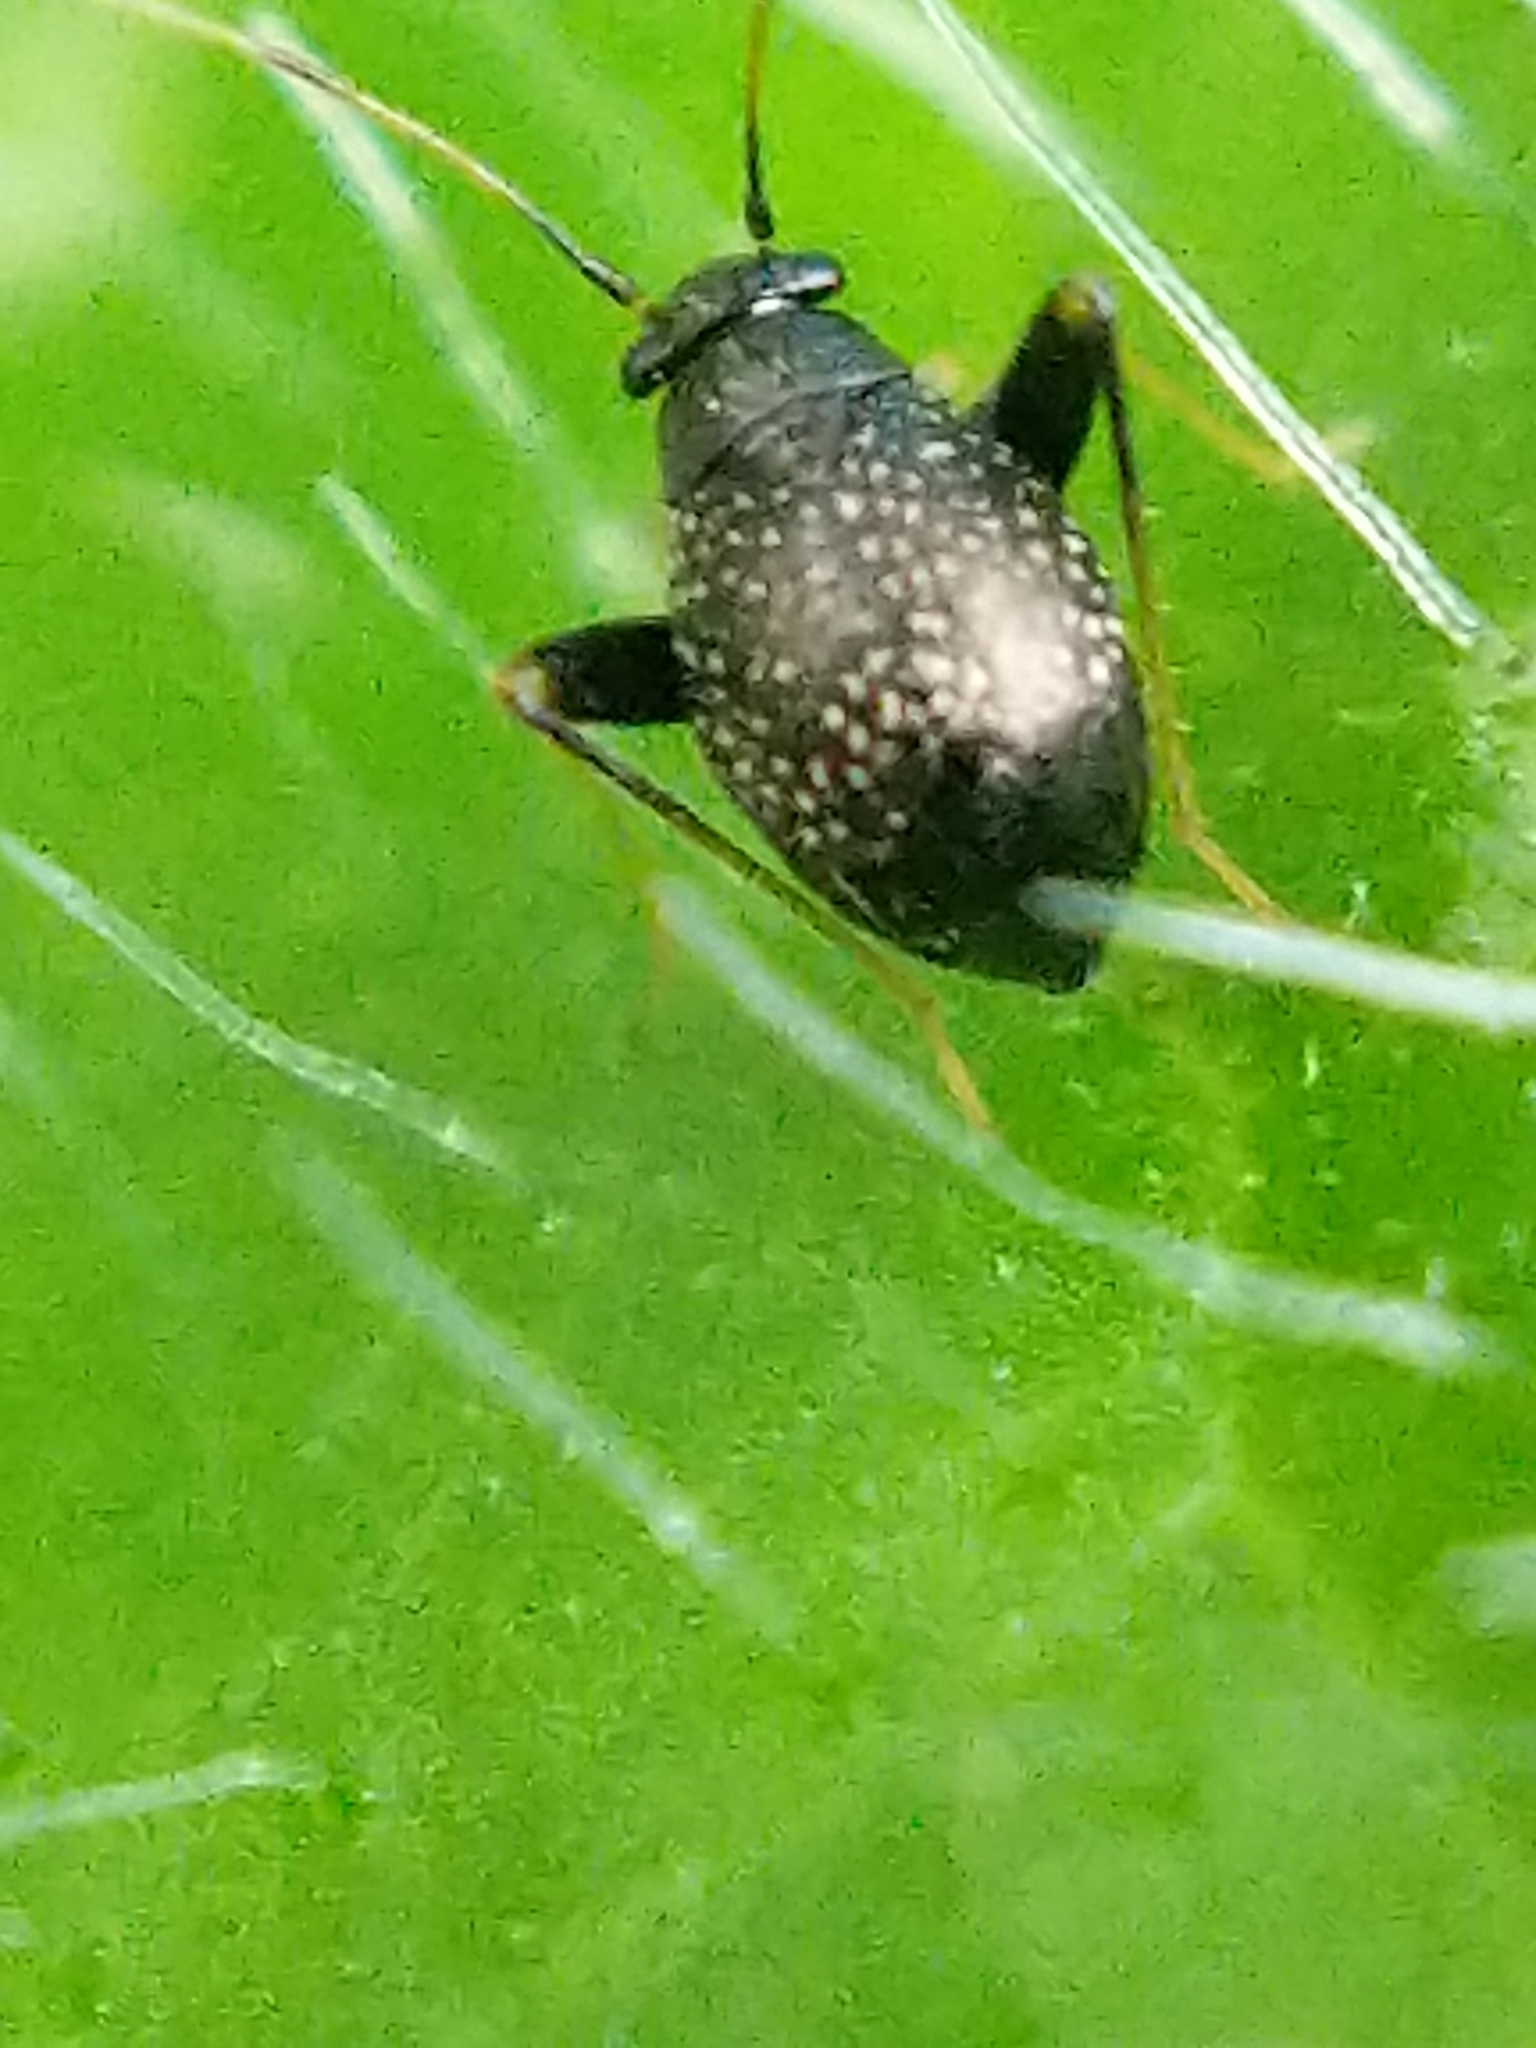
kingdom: Animalia
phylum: Arthropoda
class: Insecta
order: Hemiptera
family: Miridae
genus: Microtechnites
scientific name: Microtechnites bractatus
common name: Garden fleahopper
